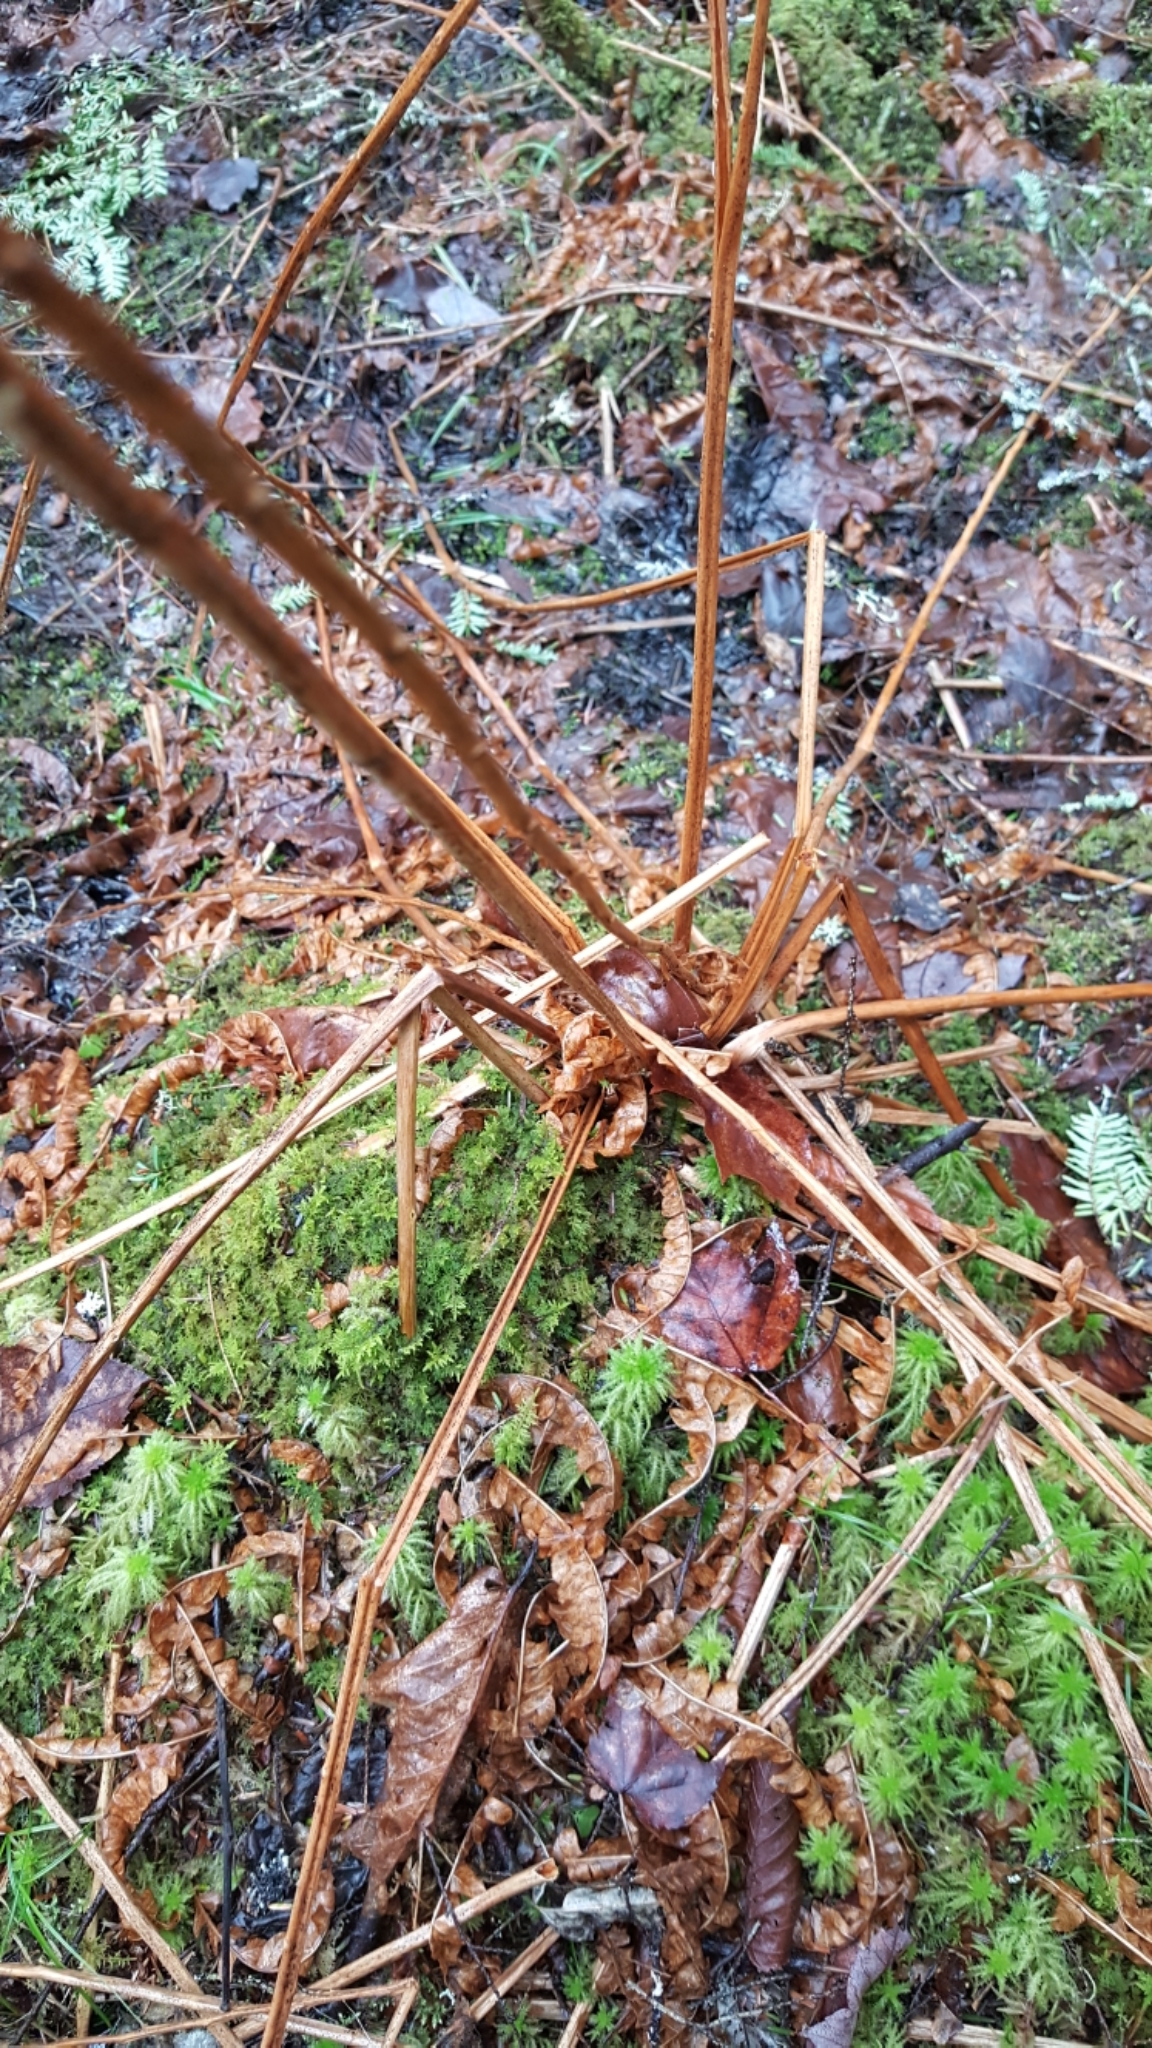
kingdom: Plantae
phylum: Tracheophyta
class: Polypodiopsida
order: Polypodiales
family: Onocleaceae
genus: Matteuccia
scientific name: Matteuccia struthiopteris
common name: Ostrich fern
